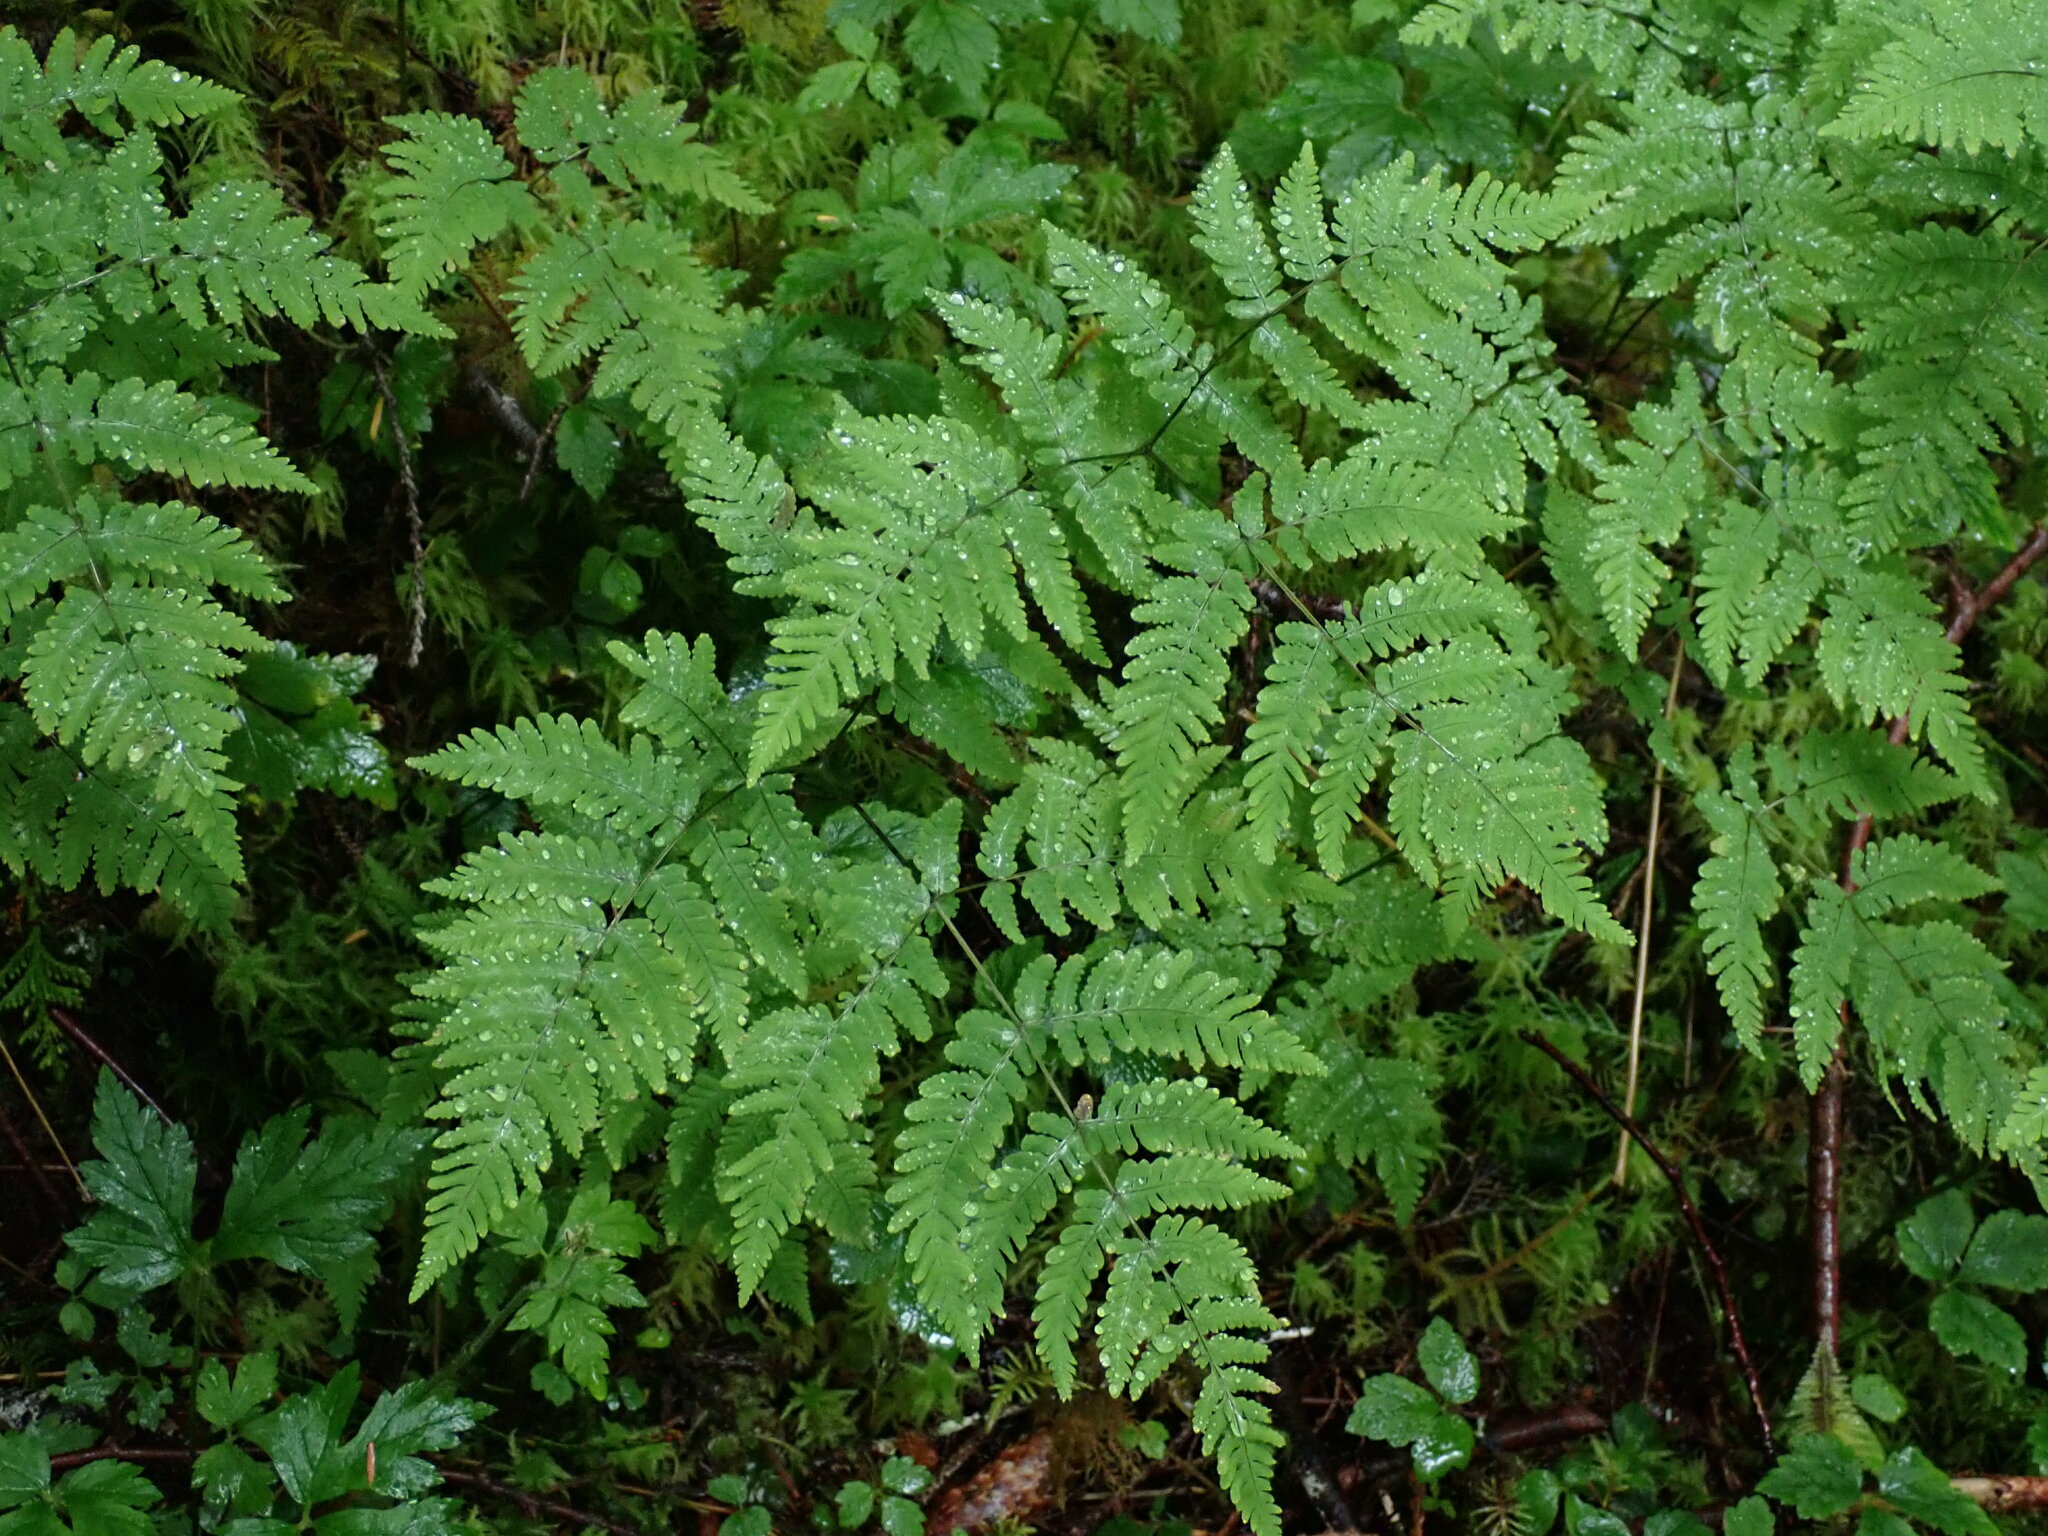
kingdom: Plantae
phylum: Tracheophyta
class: Polypodiopsida
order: Polypodiales
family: Cystopteridaceae
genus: Gymnocarpium
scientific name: Gymnocarpium disjunctum
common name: Western oak fern
